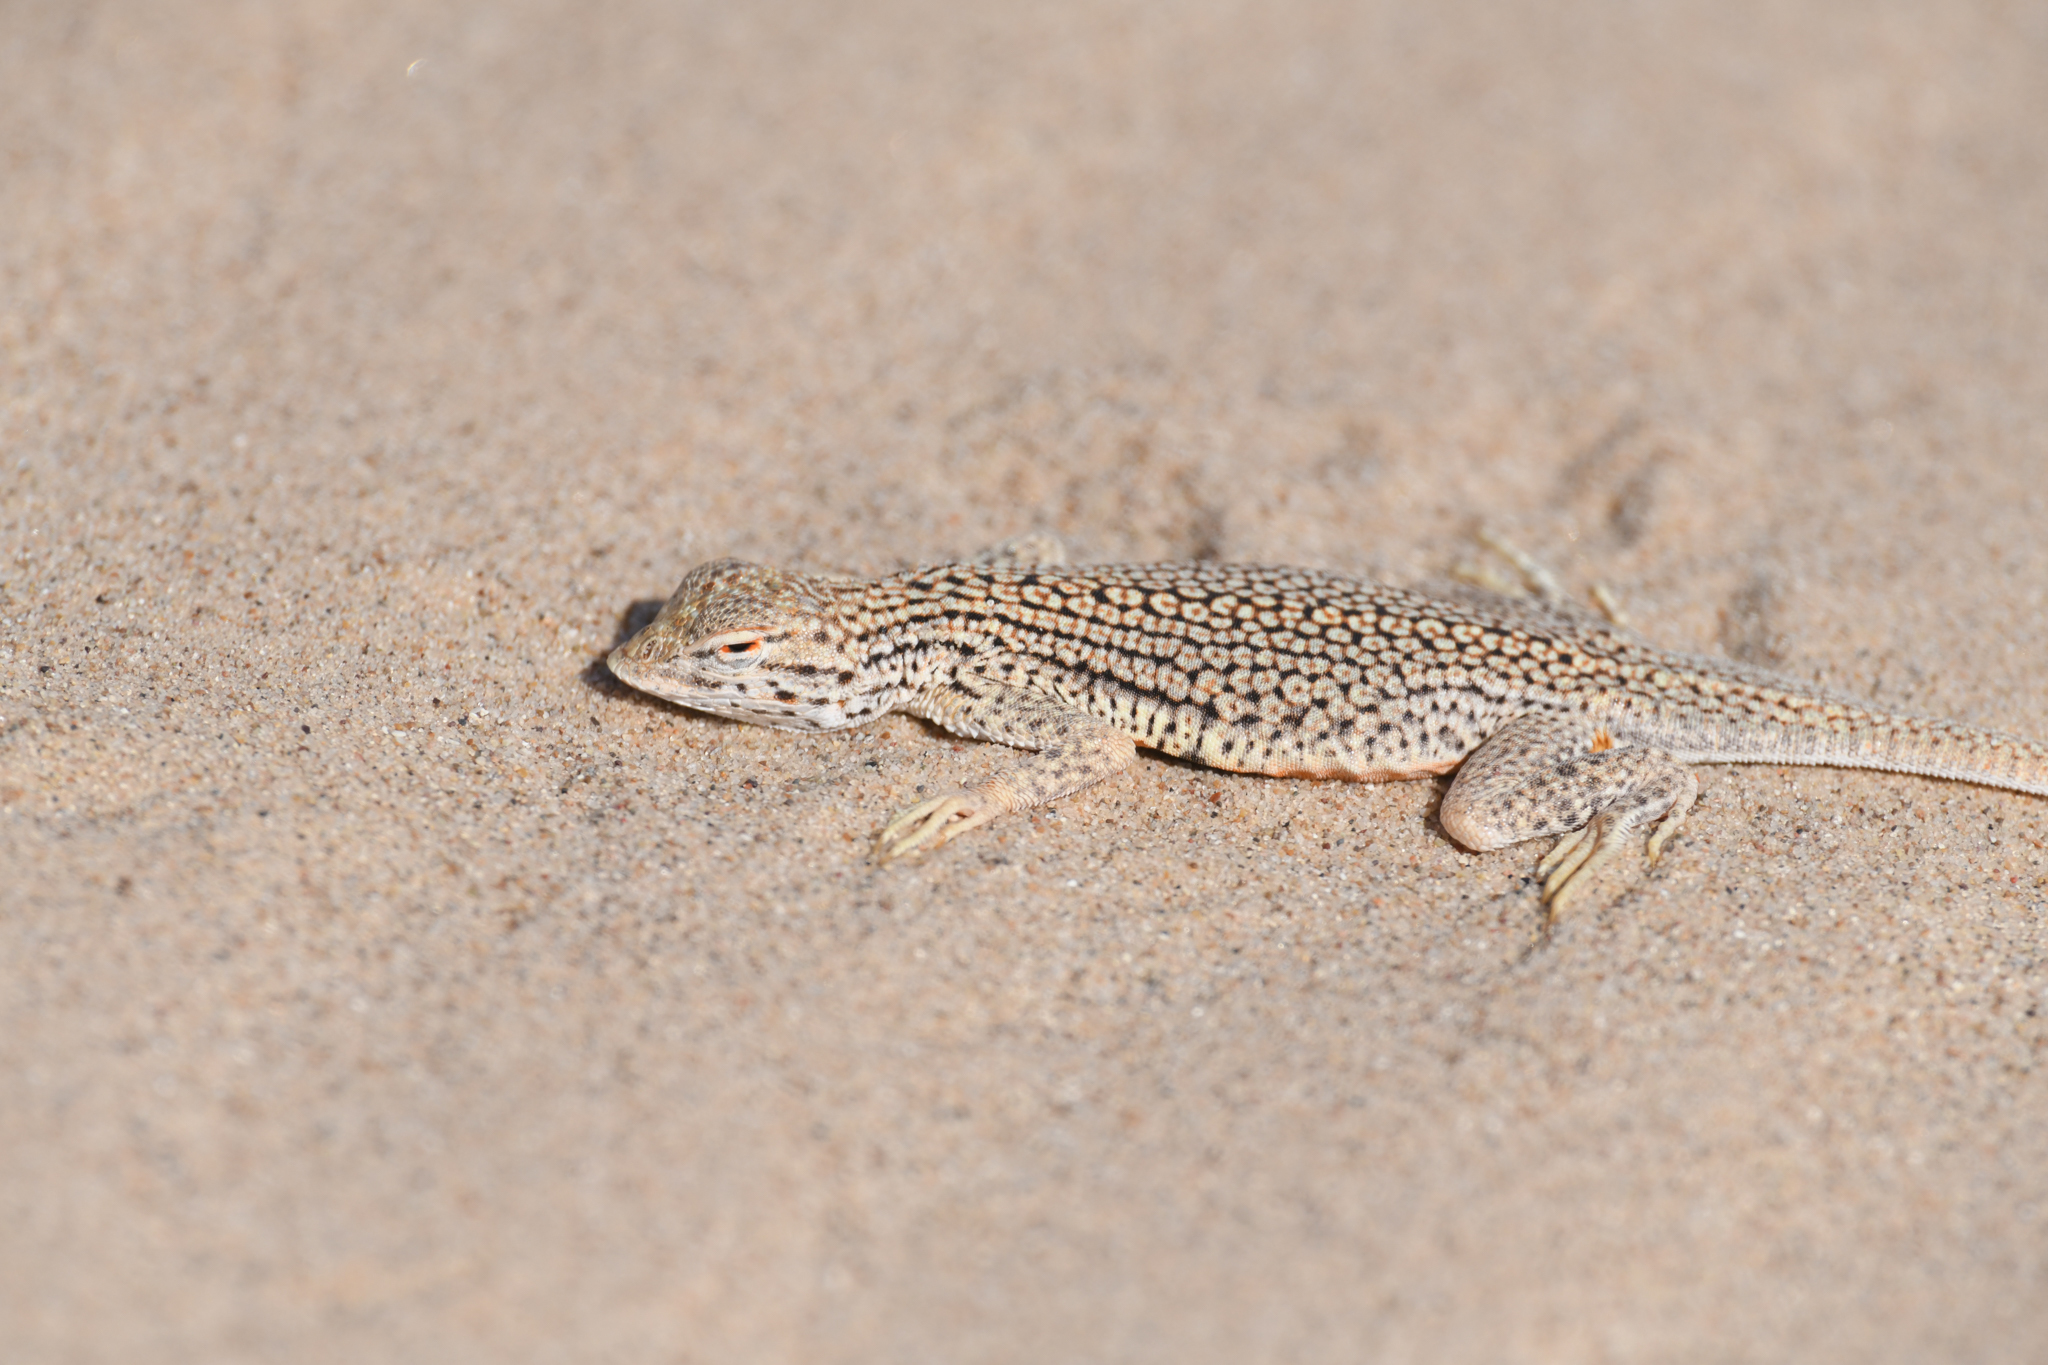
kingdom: Animalia
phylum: Chordata
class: Squamata
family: Phrynosomatidae
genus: Uma
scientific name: Uma notata
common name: Colorado desert fringe-toed lizard
